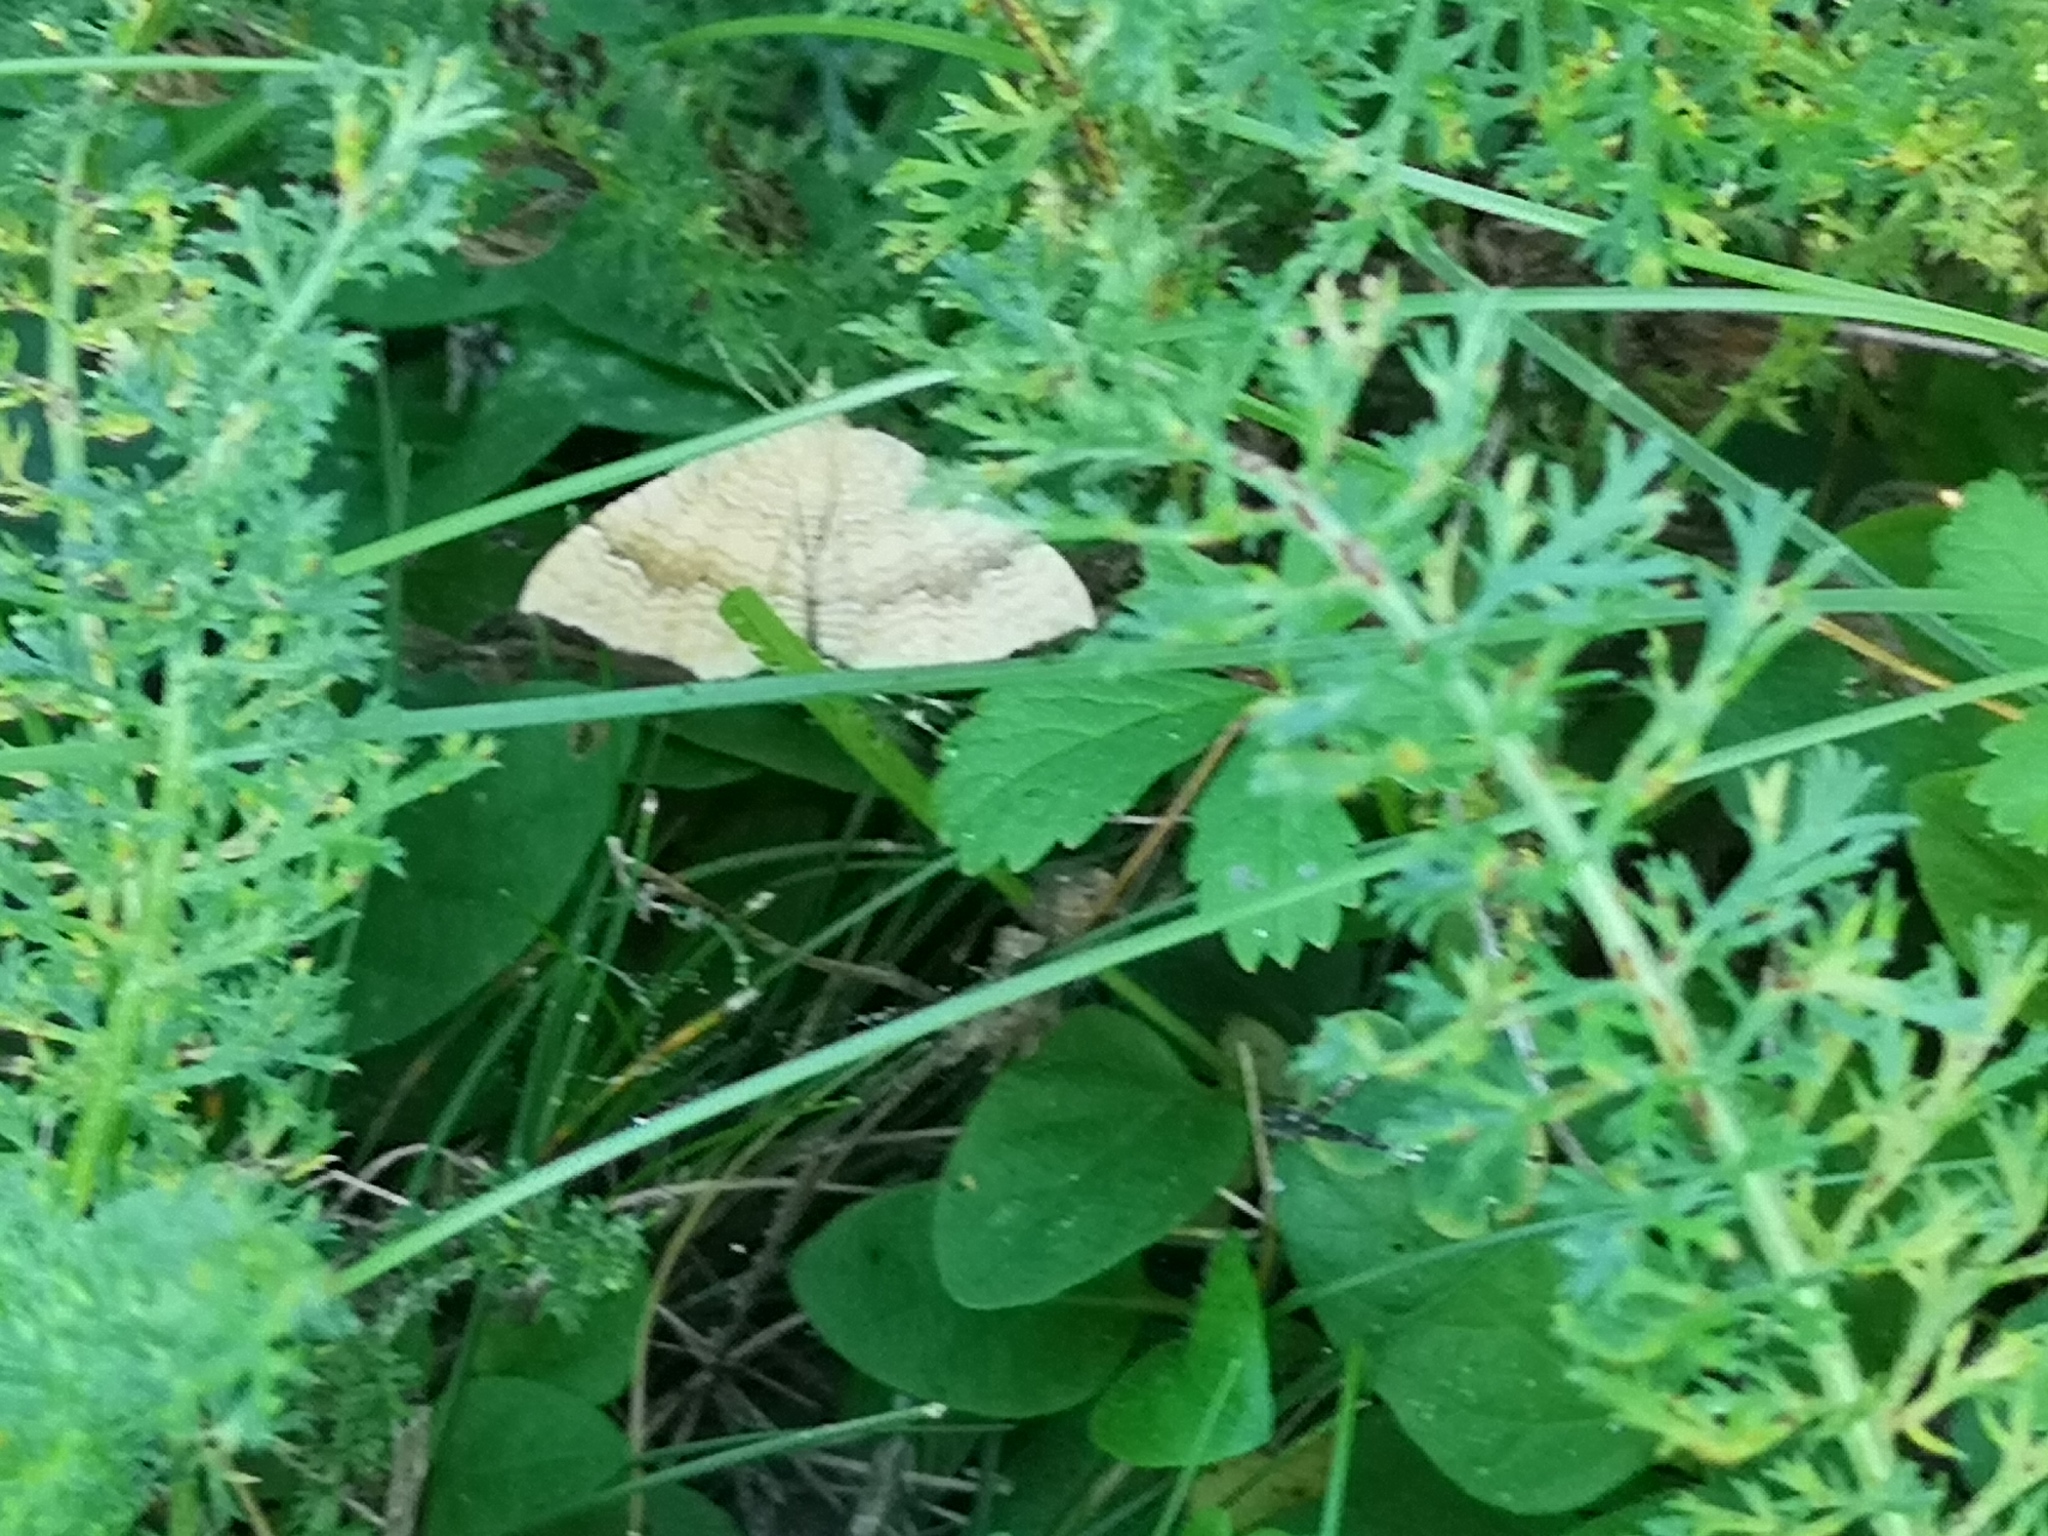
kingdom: Animalia
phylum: Arthropoda
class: Insecta
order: Lepidoptera
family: Geometridae
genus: Camptogramma
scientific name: Camptogramma bilineata
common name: Yellow shell
